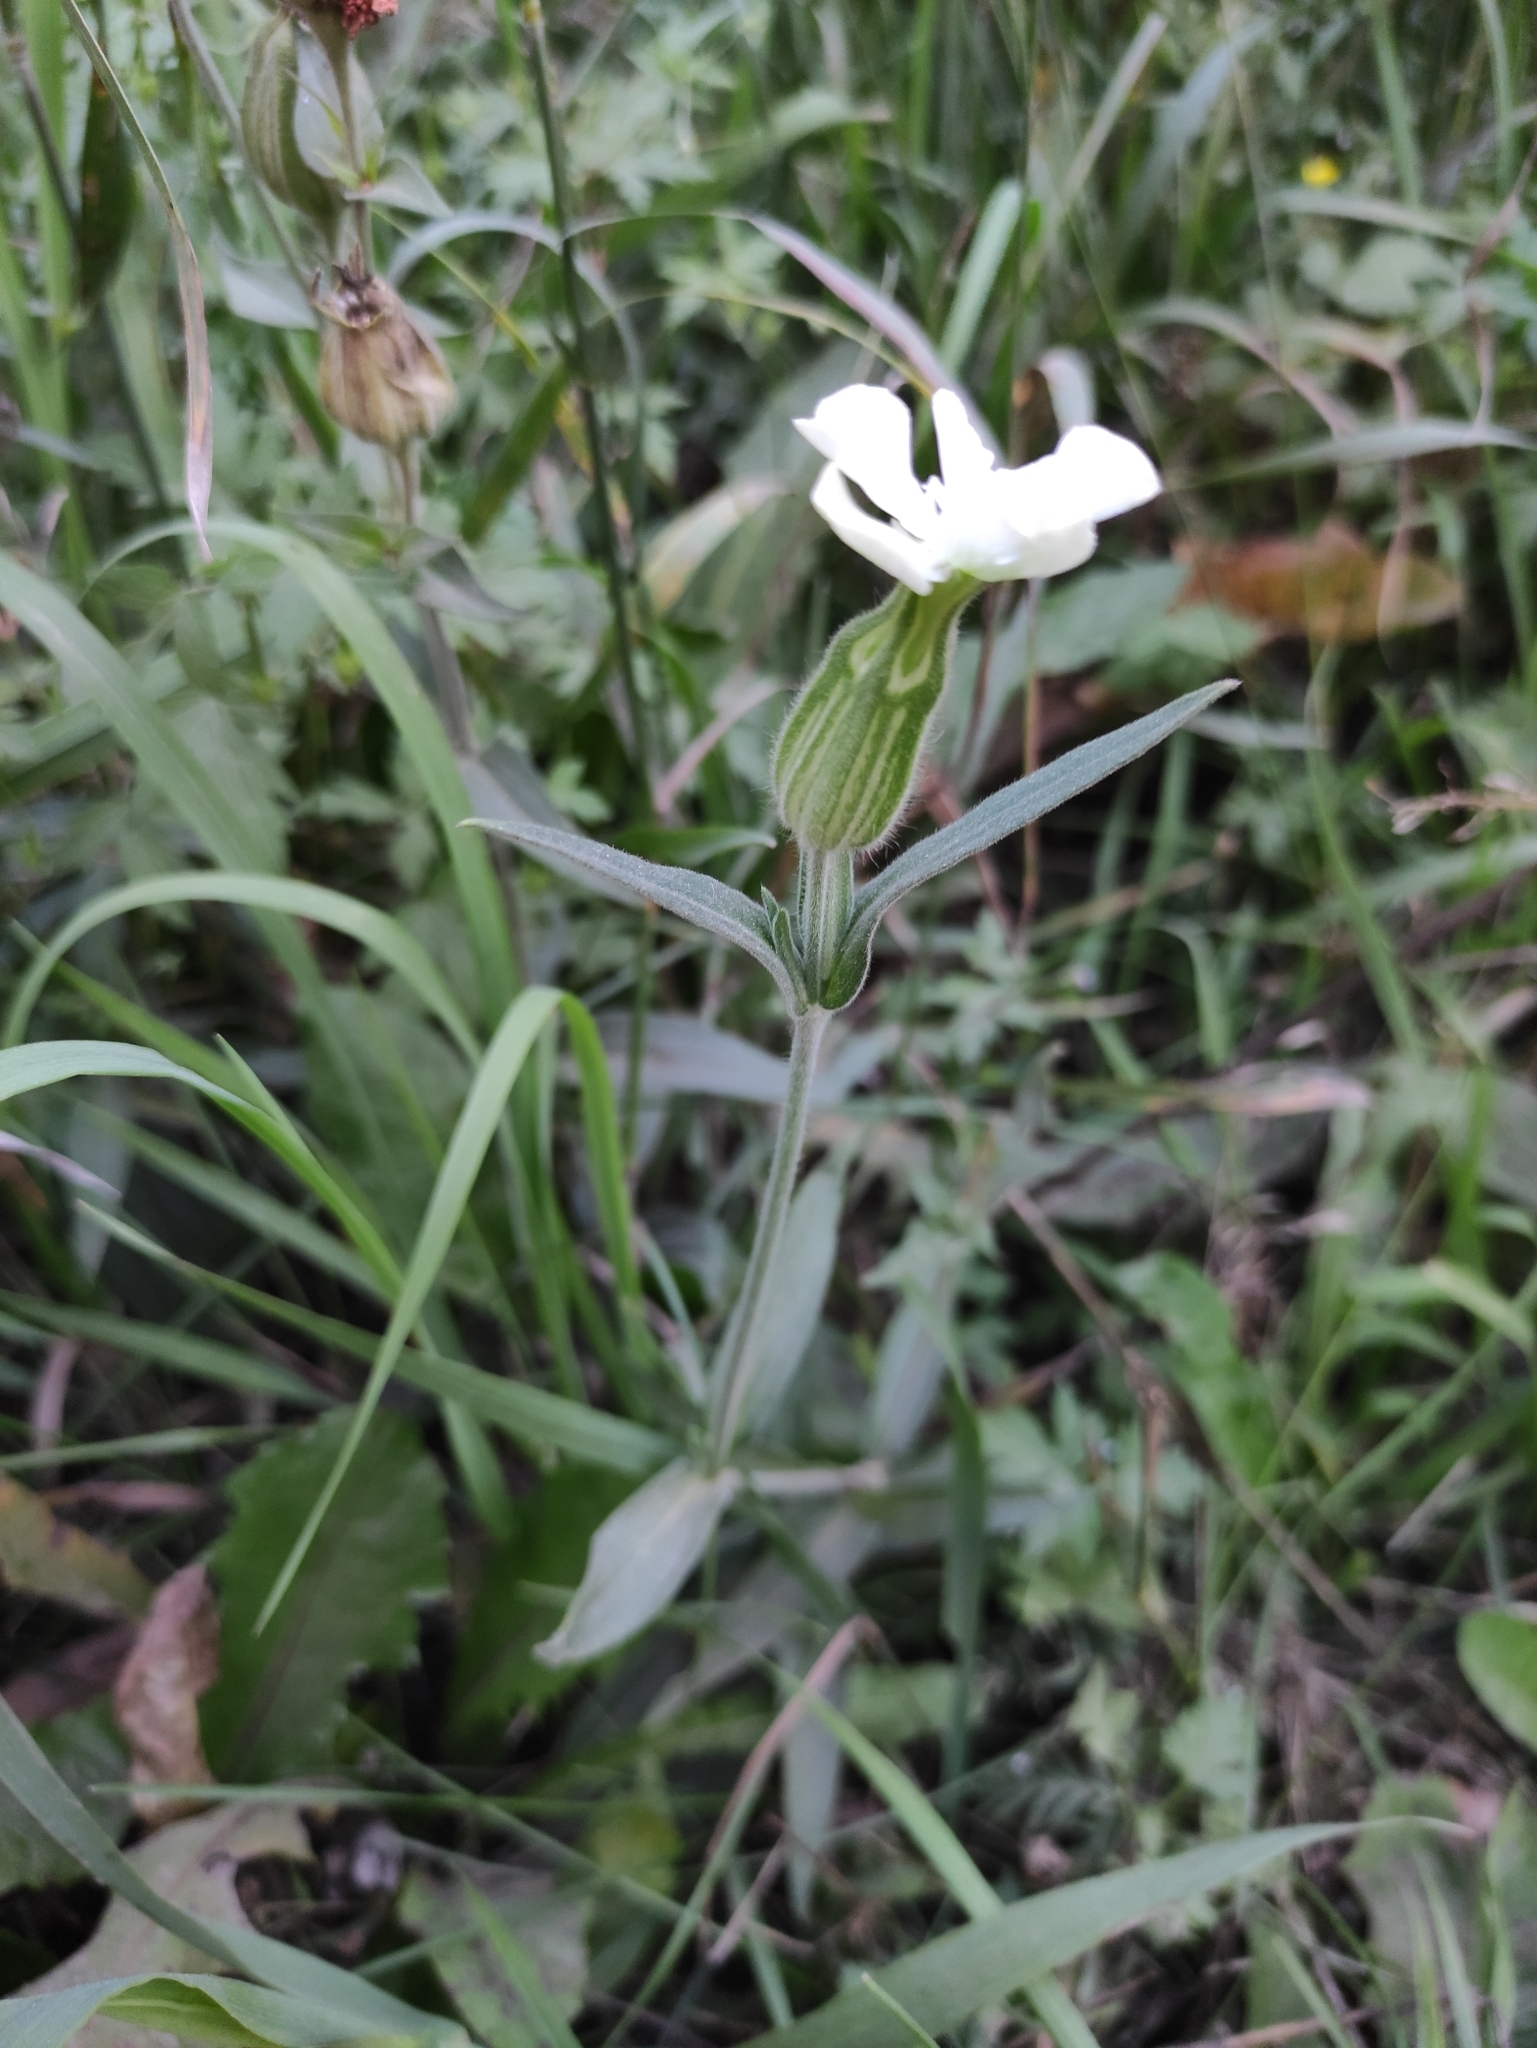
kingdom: Plantae
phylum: Tracheophyta
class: Magnoliopsida
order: Caryophyllales
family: Caryophyllaceae
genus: Silene
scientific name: Silene latifolia
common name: White campion
